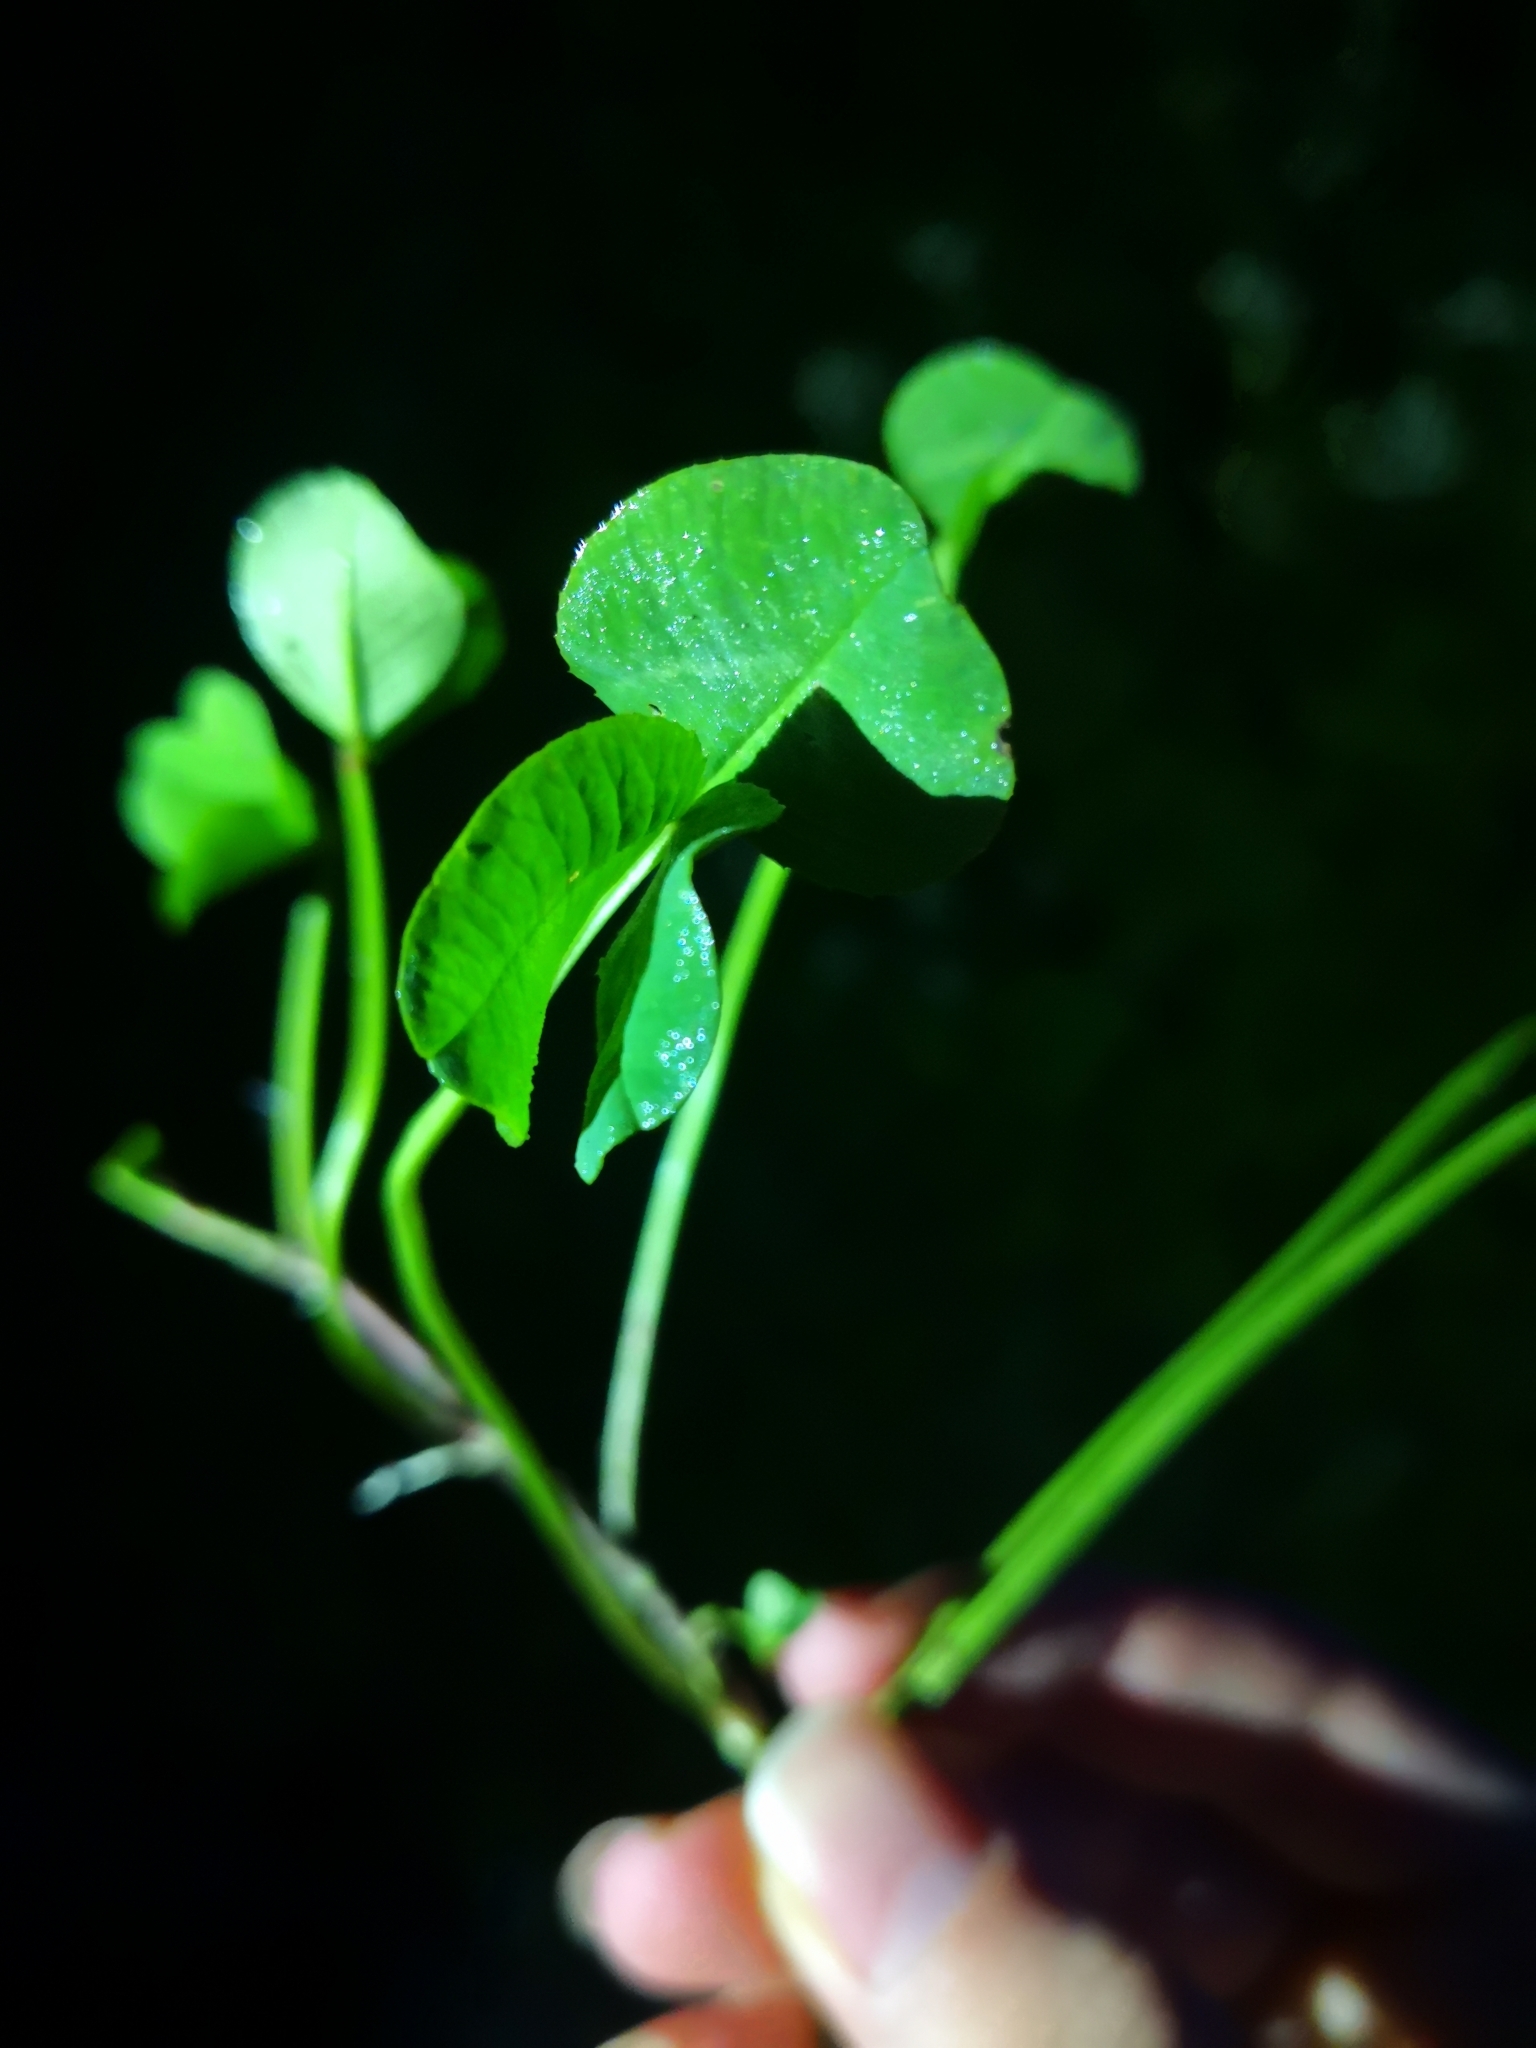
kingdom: Plantae
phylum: Tracheophyta
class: Magnoliopsida
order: Fabales
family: Fabaceae
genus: Trifolium
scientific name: Trifolium repens
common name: White clover
